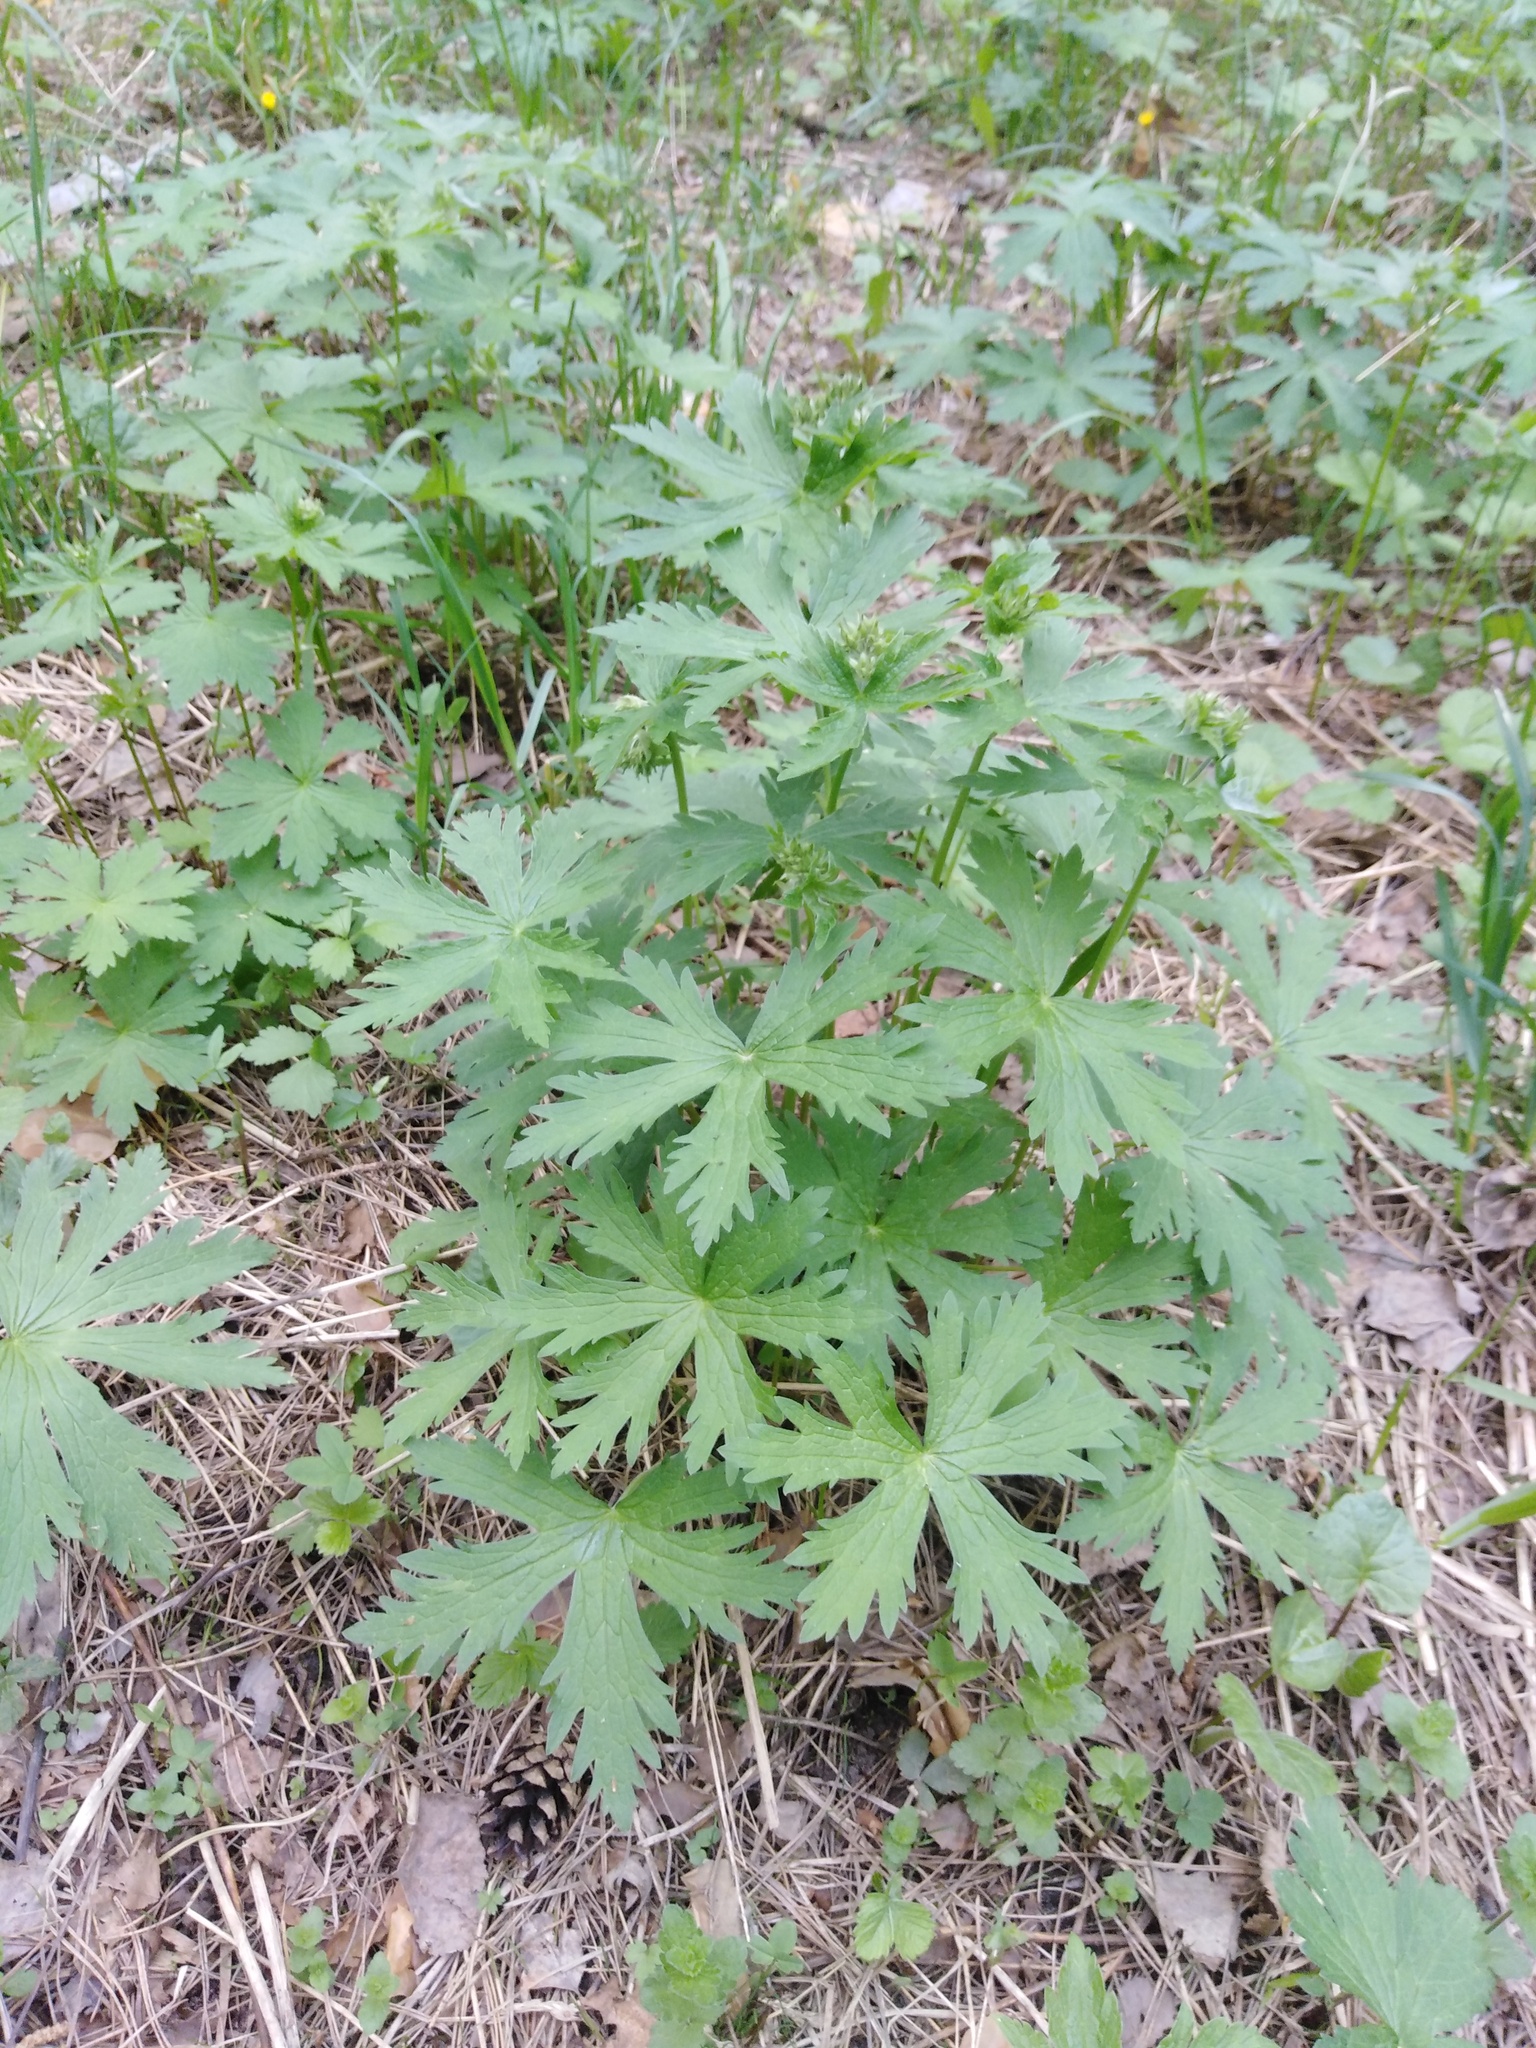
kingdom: Plantae
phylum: Tracheophyta
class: Magnoliopsida
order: Geraniales
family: Geraniaceae
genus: Geranium
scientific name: Geranium sylvaticum
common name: Wood crane's-bill
